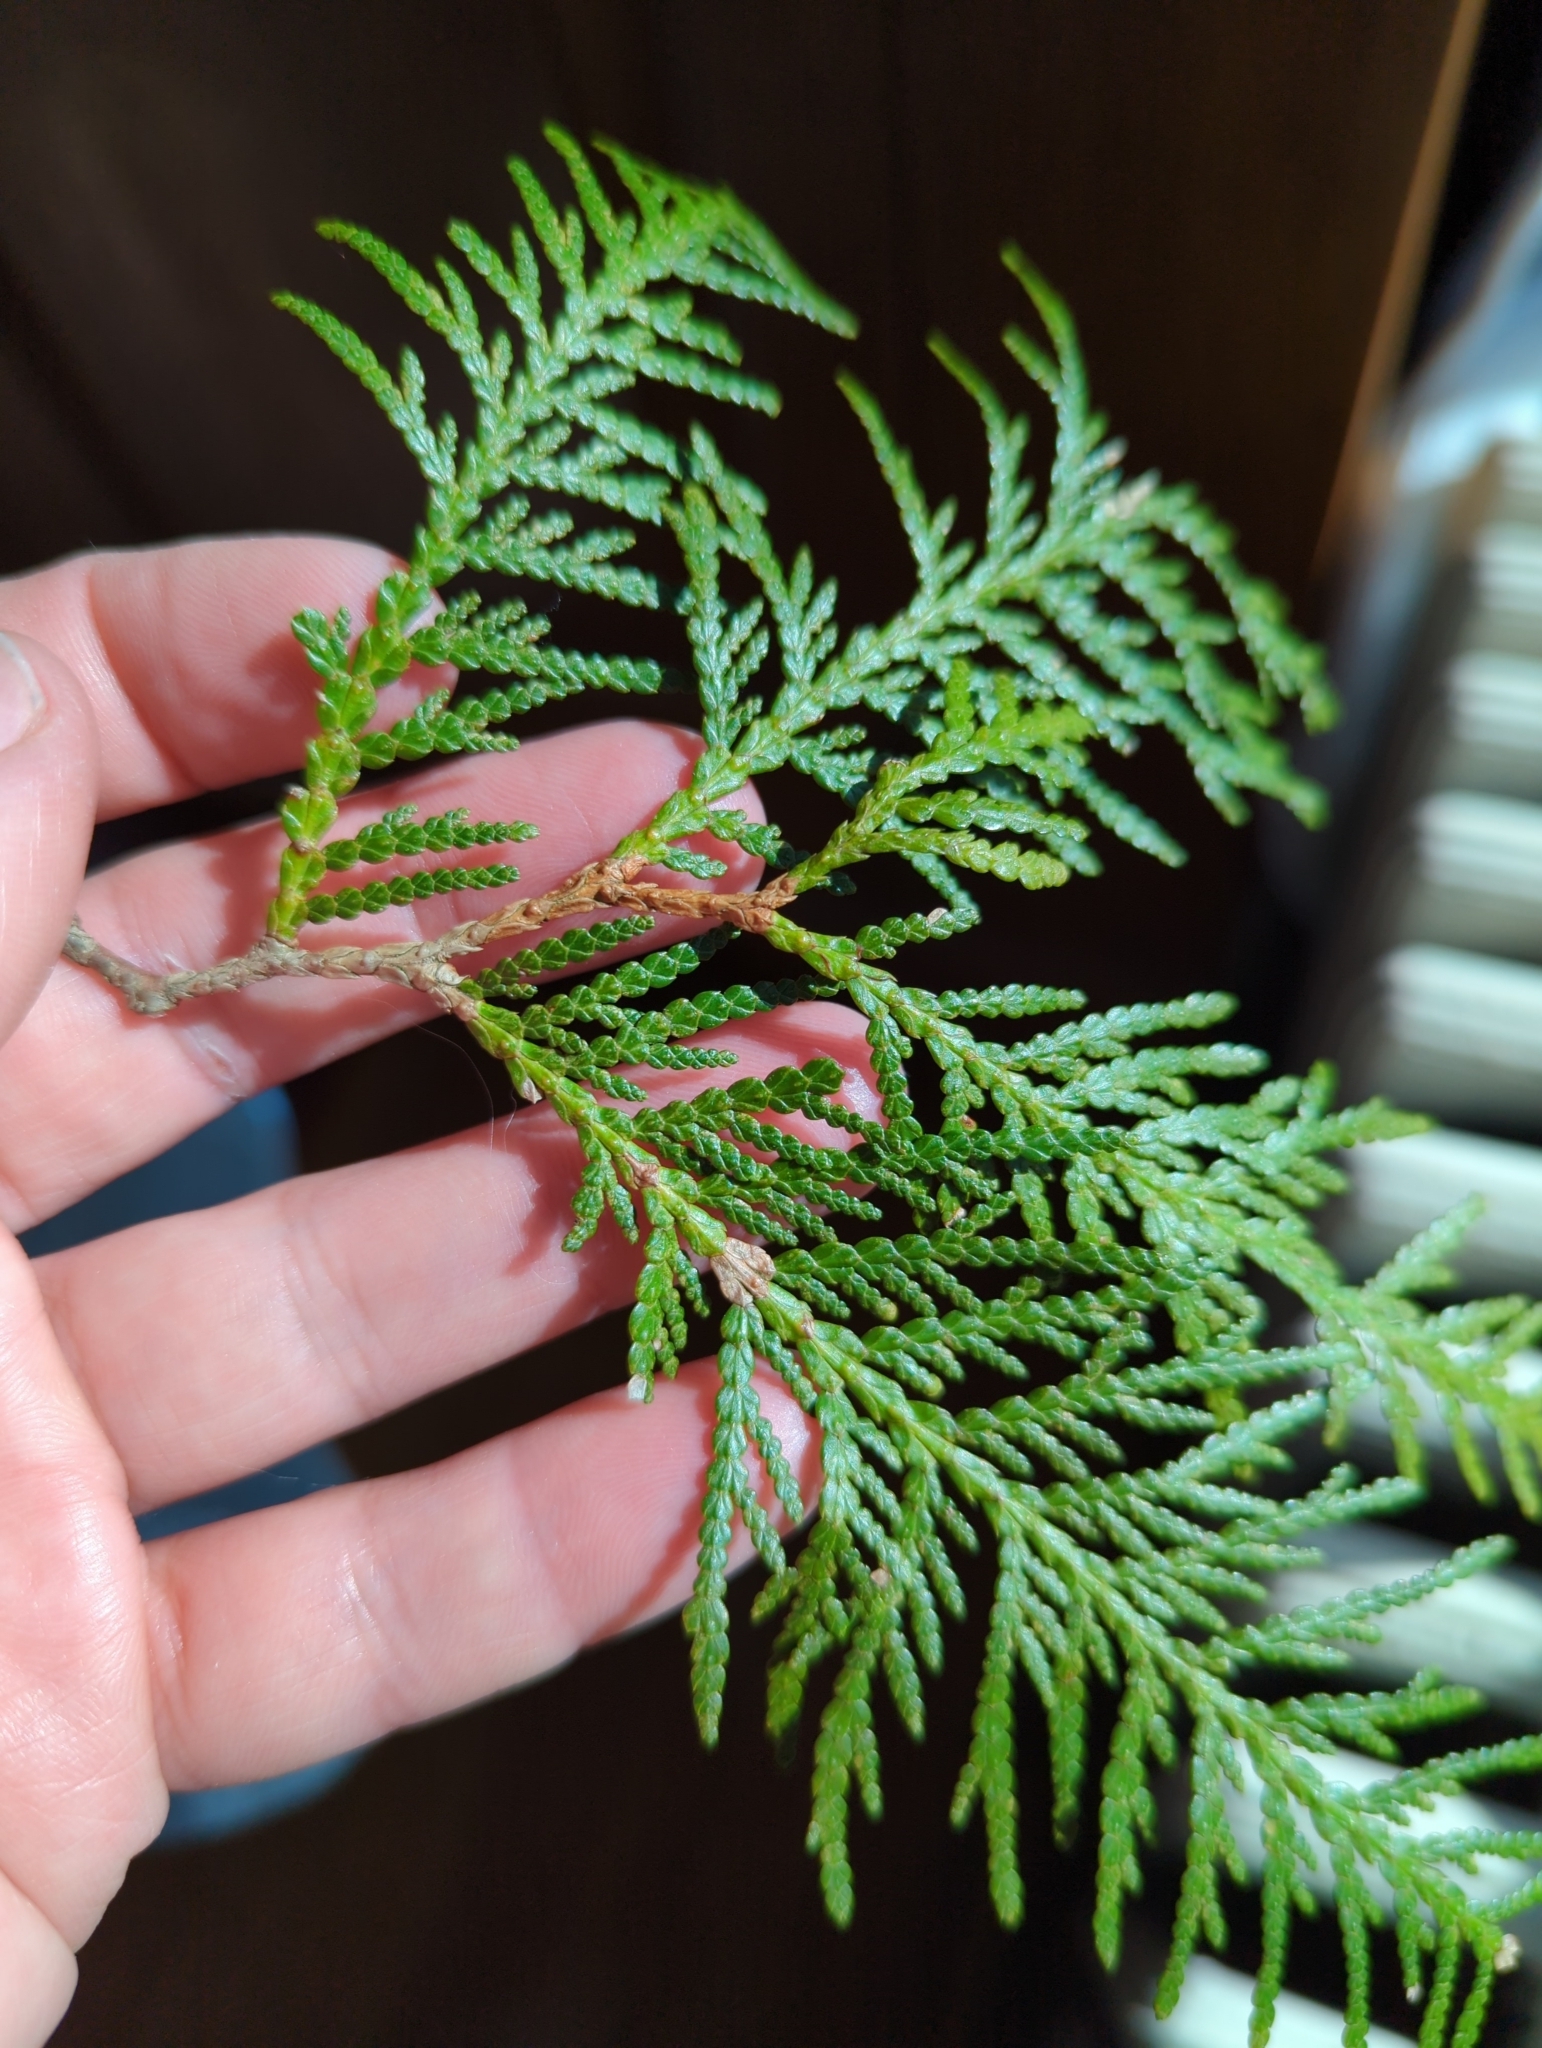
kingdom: Plantae
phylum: Tracheophyta
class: Pinopsida
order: Pinales
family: Cupressaceae
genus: Thuja
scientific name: Thuja occidentalis
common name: Northern white-cedar
